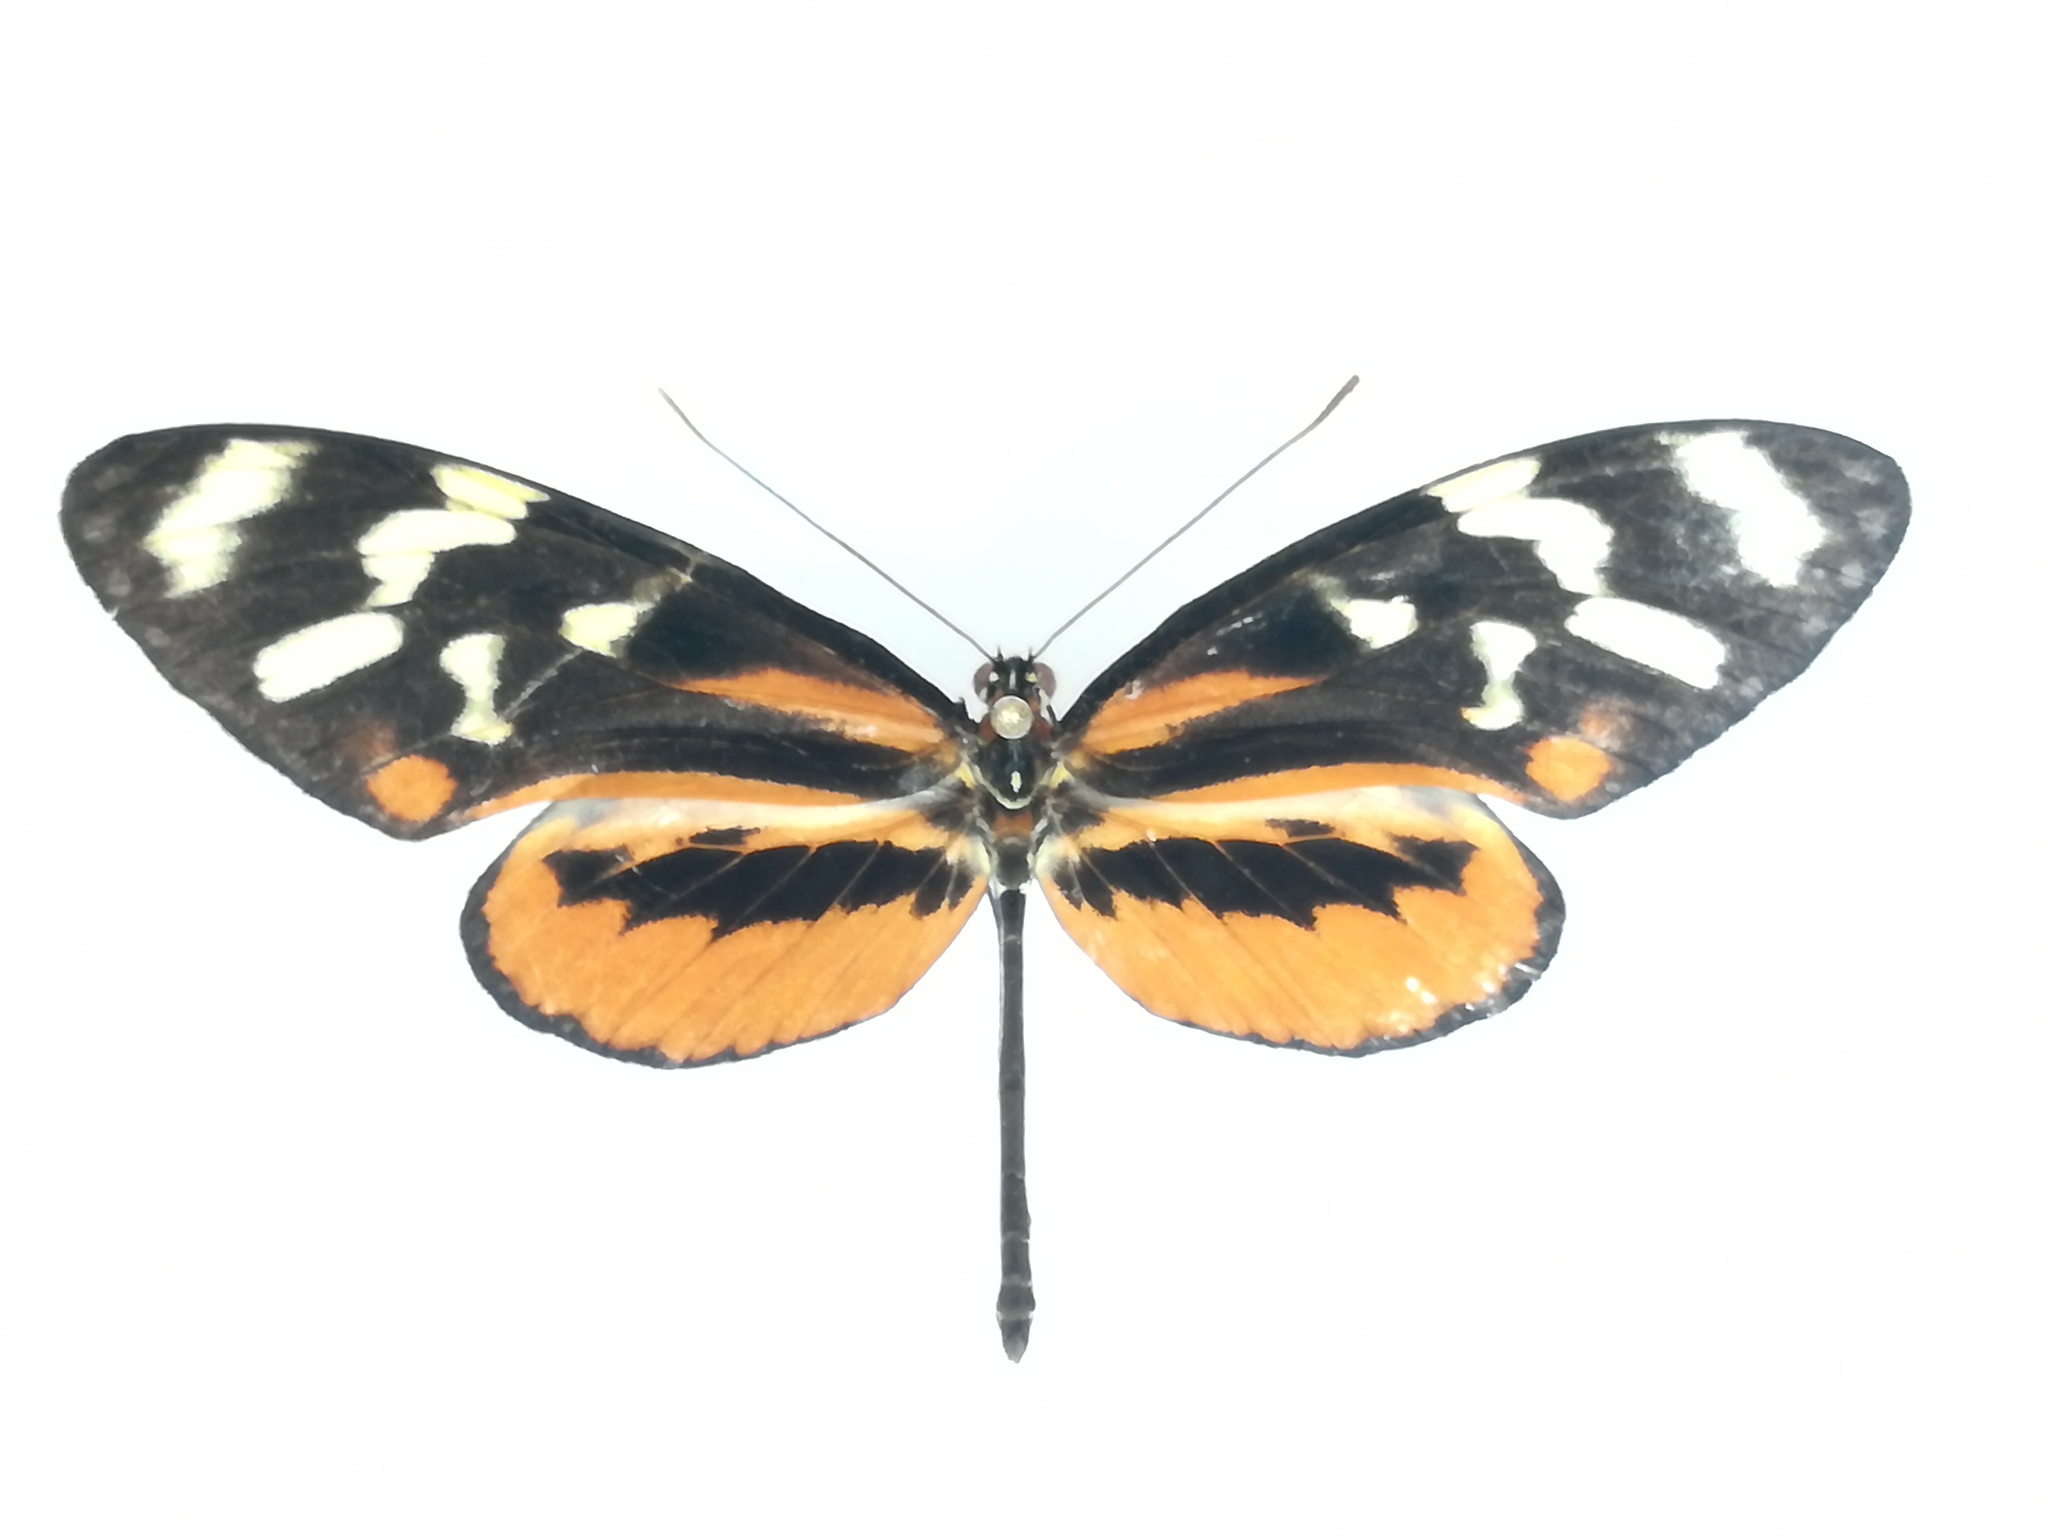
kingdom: Animalia
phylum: Arthropoda
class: Insecta
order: Lepidoptera
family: Nymphalidae
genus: Mechanitis
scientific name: Mechanitis polymnia
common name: Disturbed tigerwing
